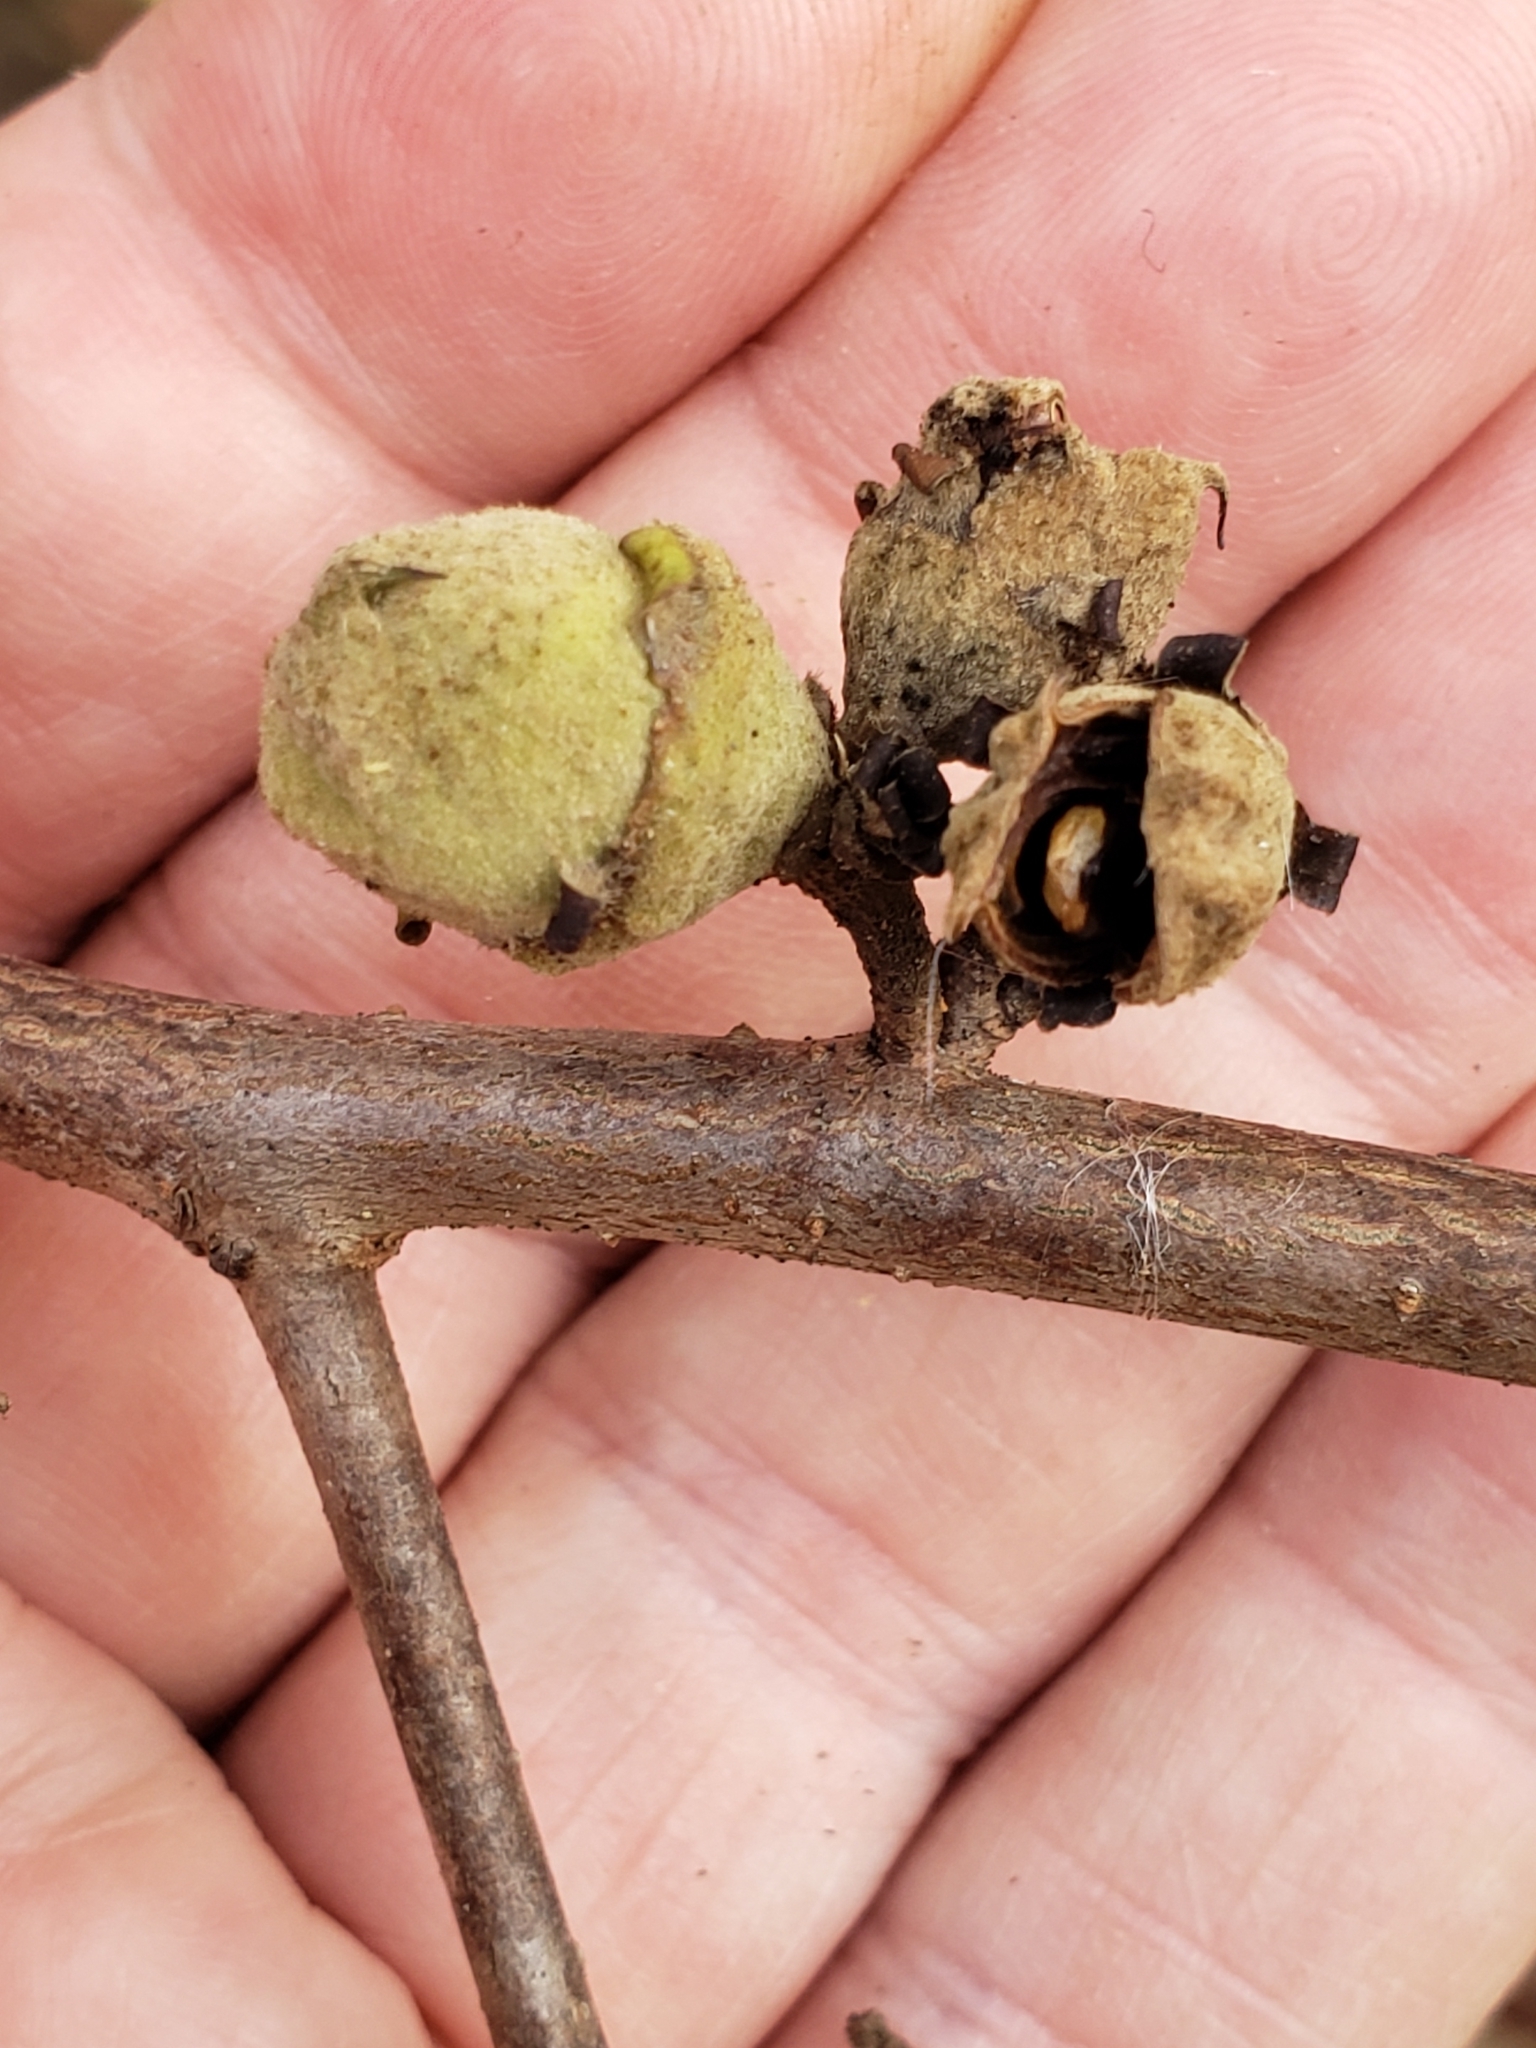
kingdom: Plantae
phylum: Tracheophyta
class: Magnoliopsida
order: Saxifragales
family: Hamamelidaceae
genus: Hamamelis
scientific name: Hamamelis virginiana
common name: Witch-hazel
